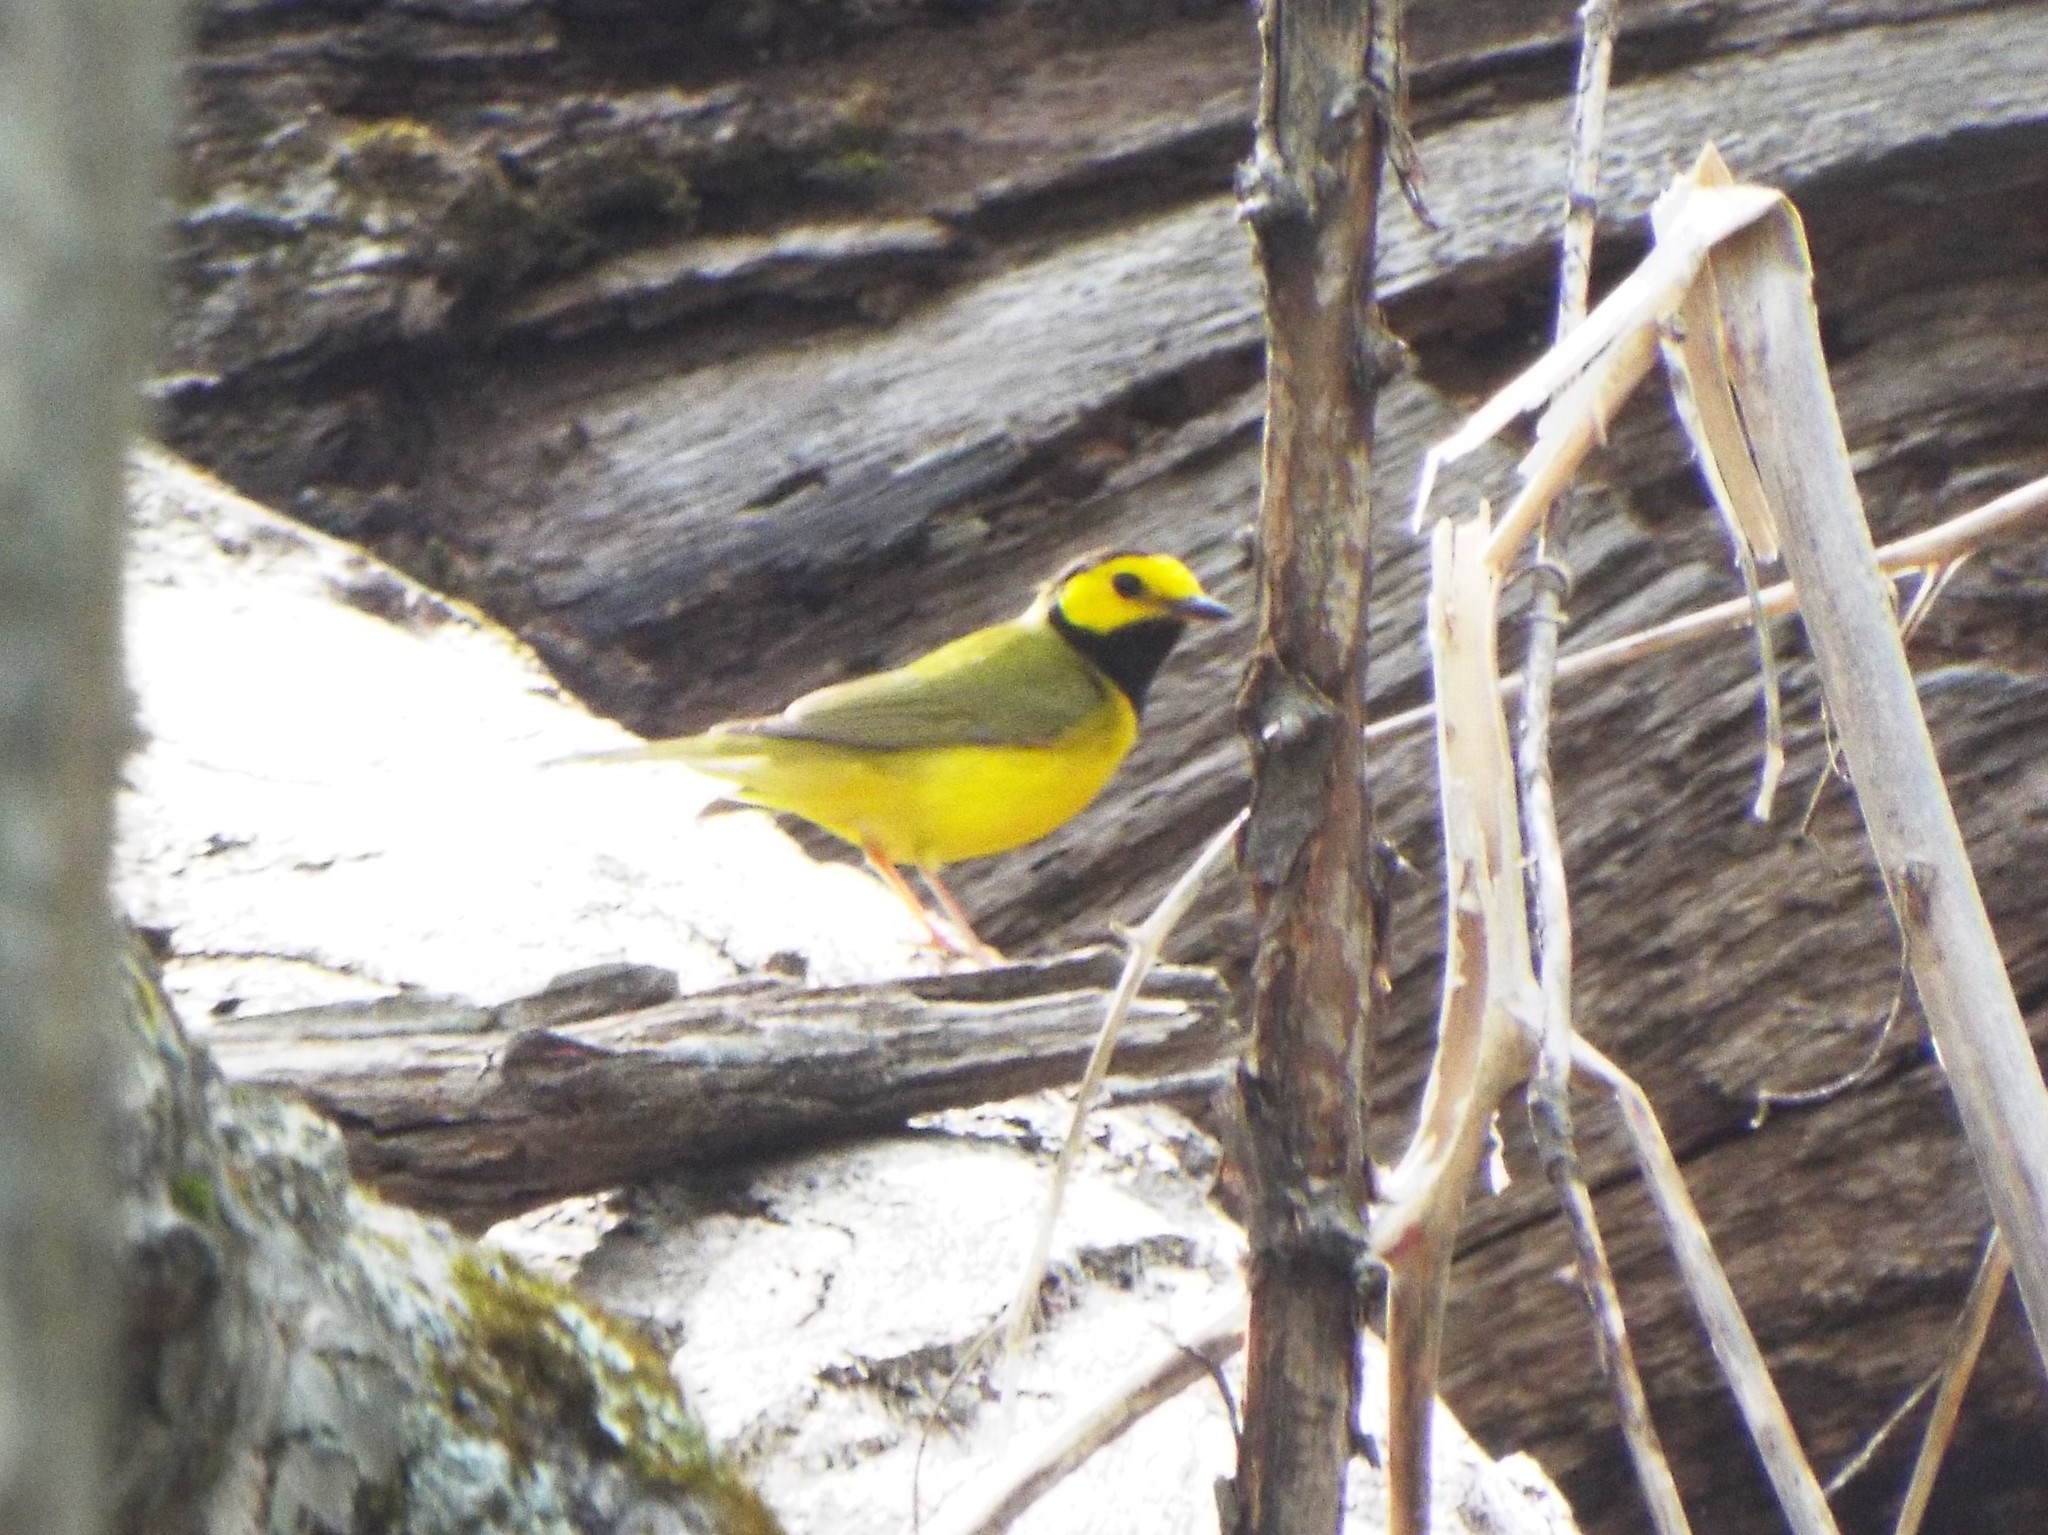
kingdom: Animalia
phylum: Chordata
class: Aves
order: Passeriformes
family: Parulidae
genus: Setophaga
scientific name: Setophaga citrina
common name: Hooded warbler
